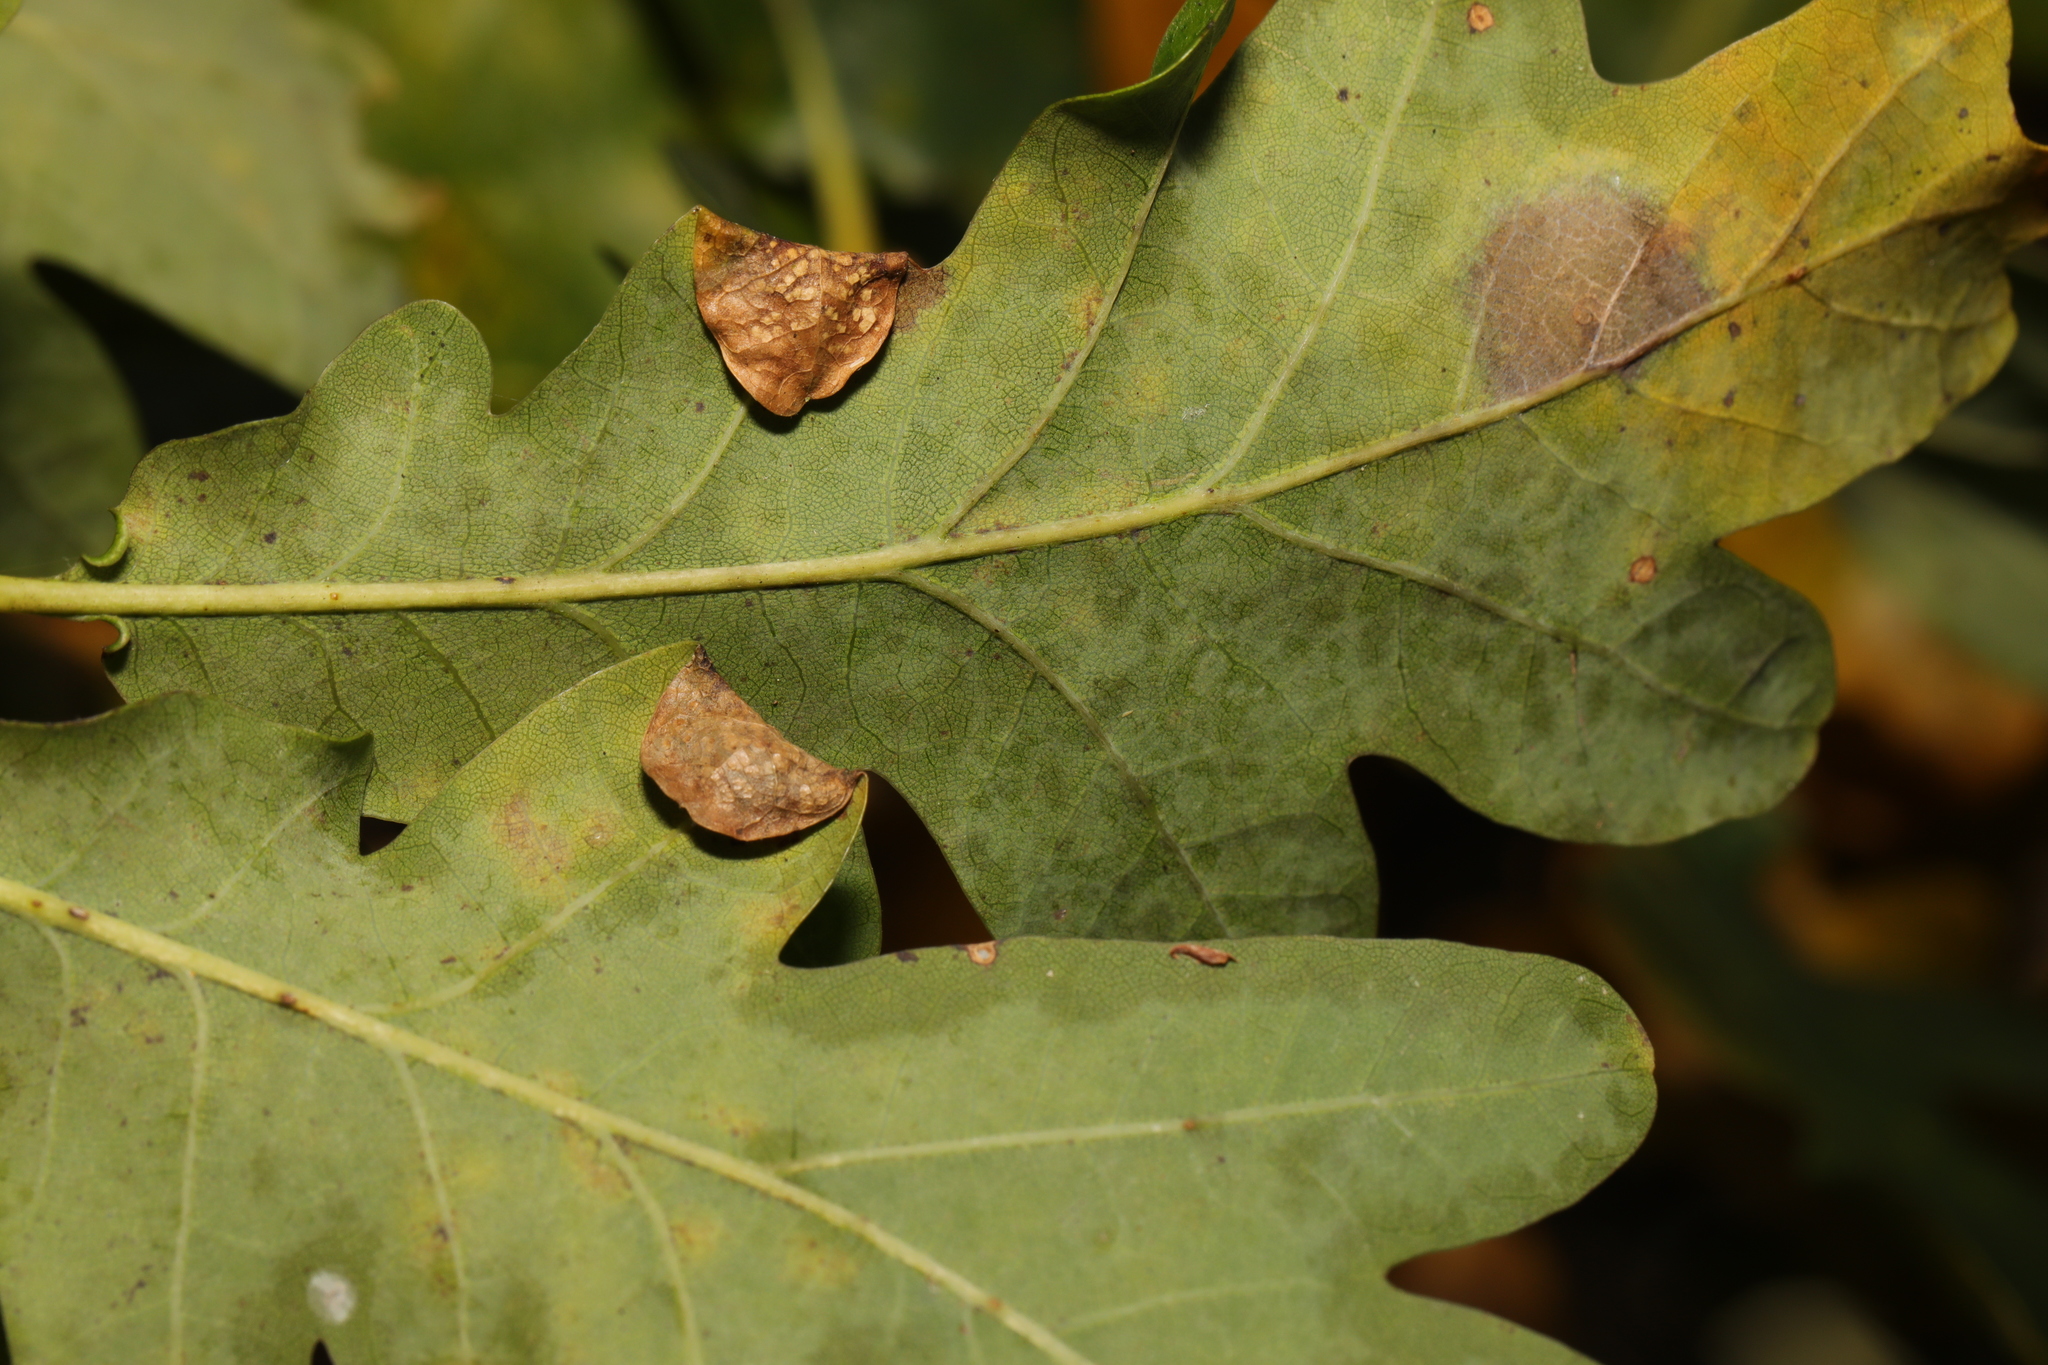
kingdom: Animalia
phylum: Arthropoda
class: Insecta
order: Diptera
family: Cecidomyiidae
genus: Macrodiplosis
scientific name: Macrodiplosis pustularis
